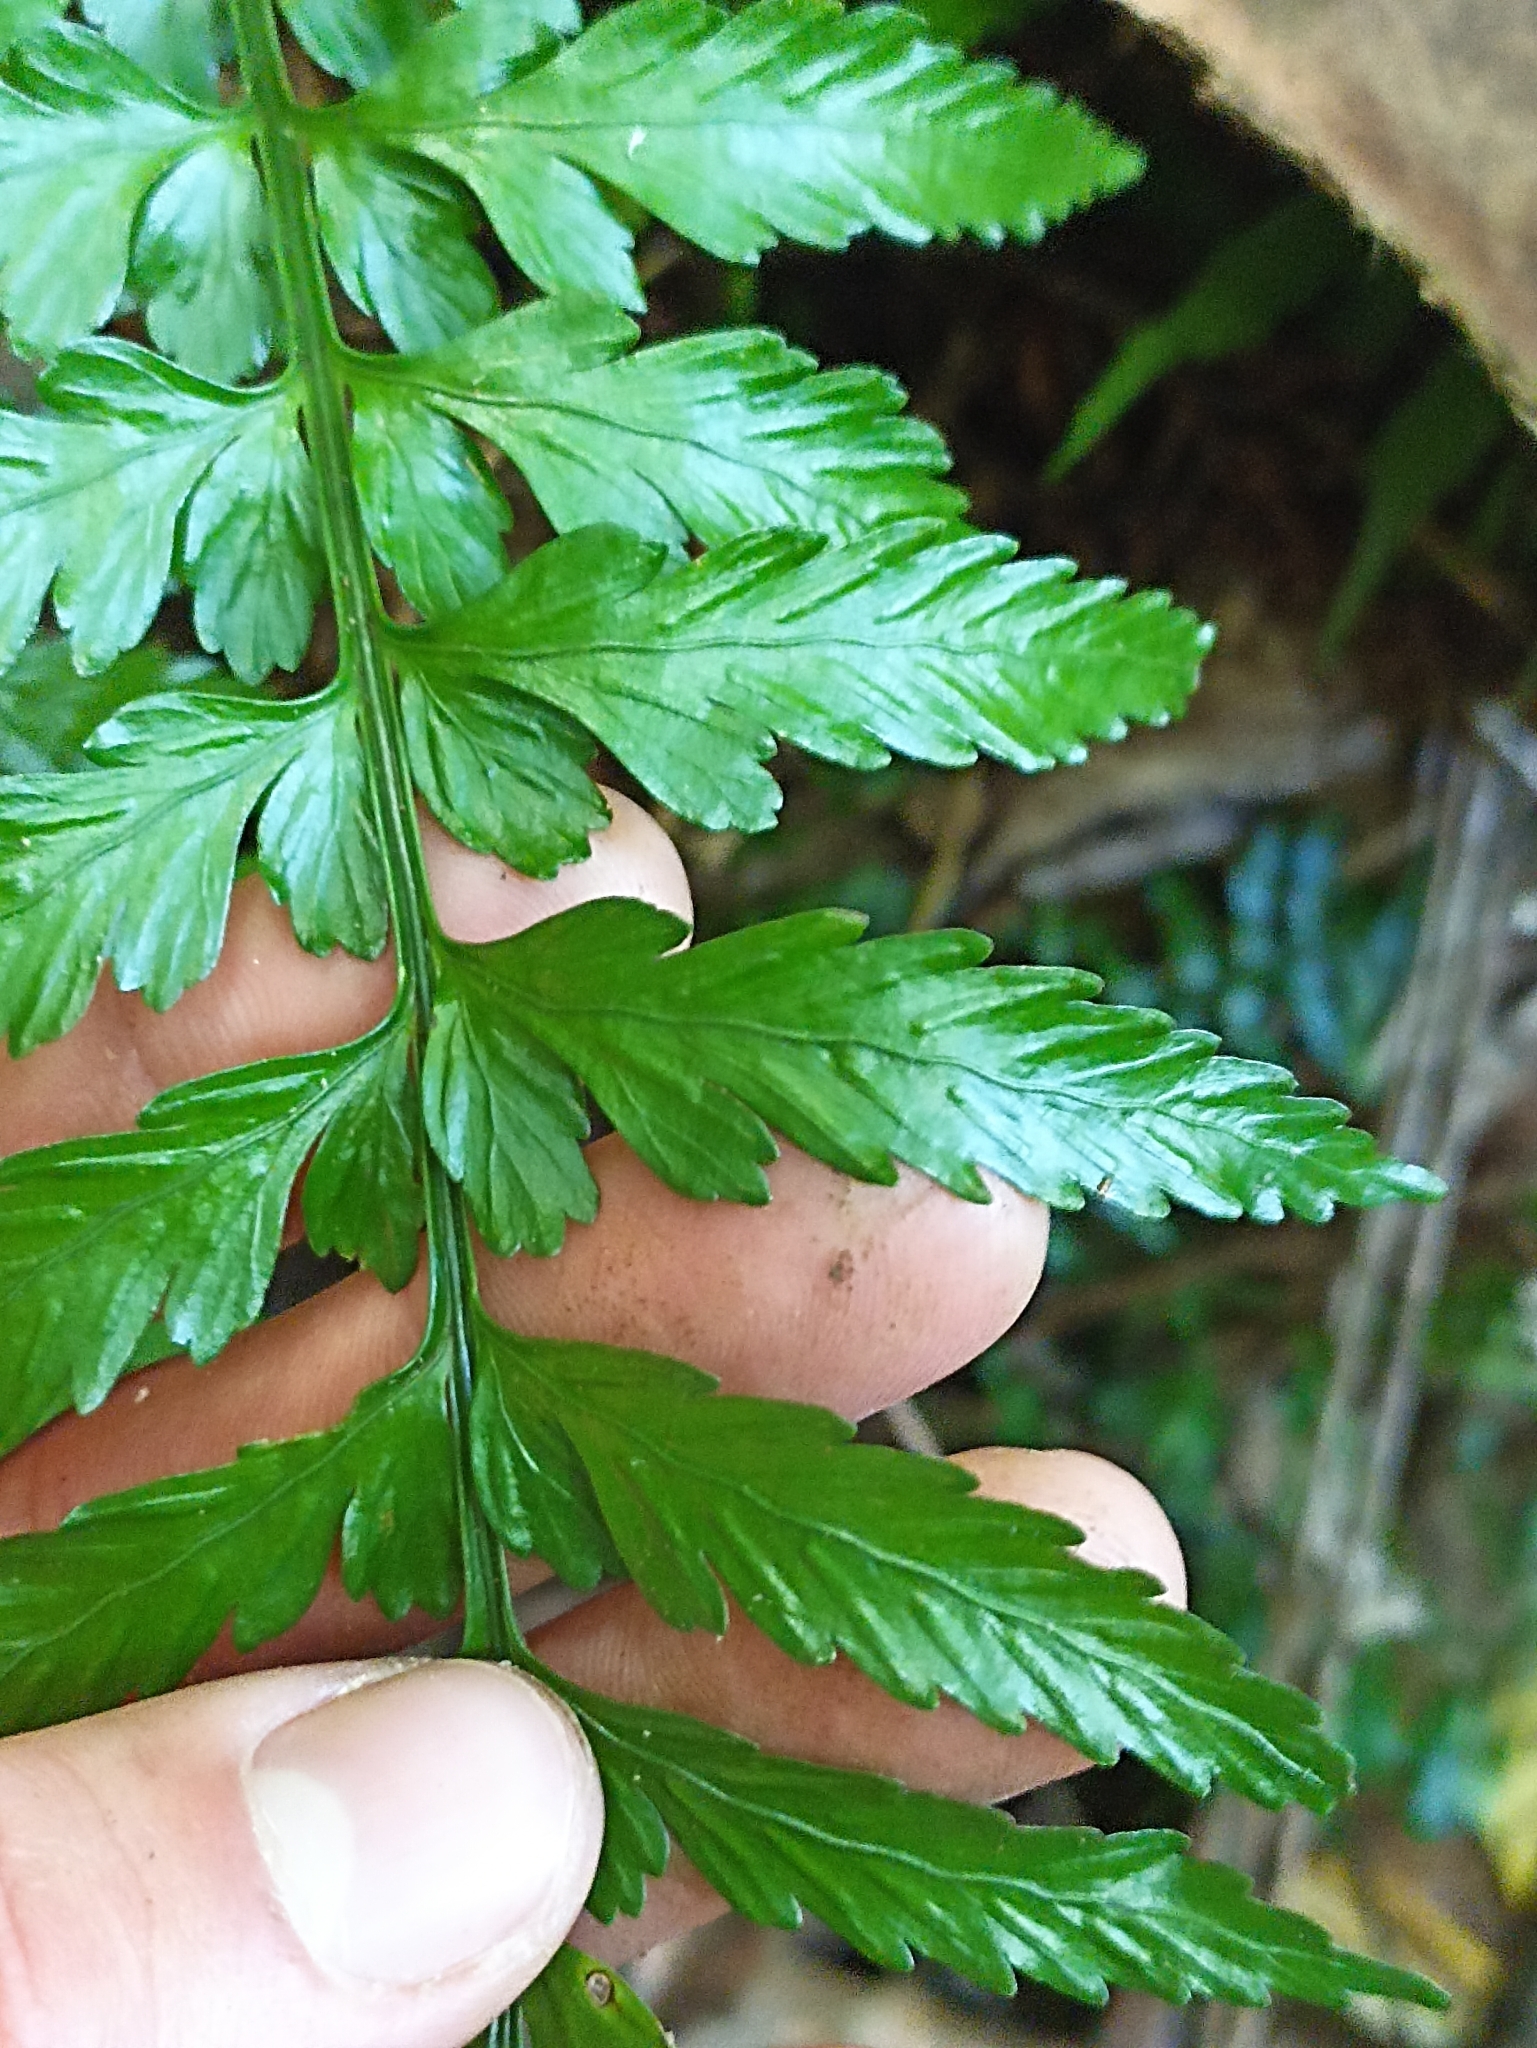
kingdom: Plantae
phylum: Tracheophyta
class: Polypodiopsida
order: Polypodiales
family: Aspleniaceae
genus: Asplenium
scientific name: Asplenium lamprophyllum
